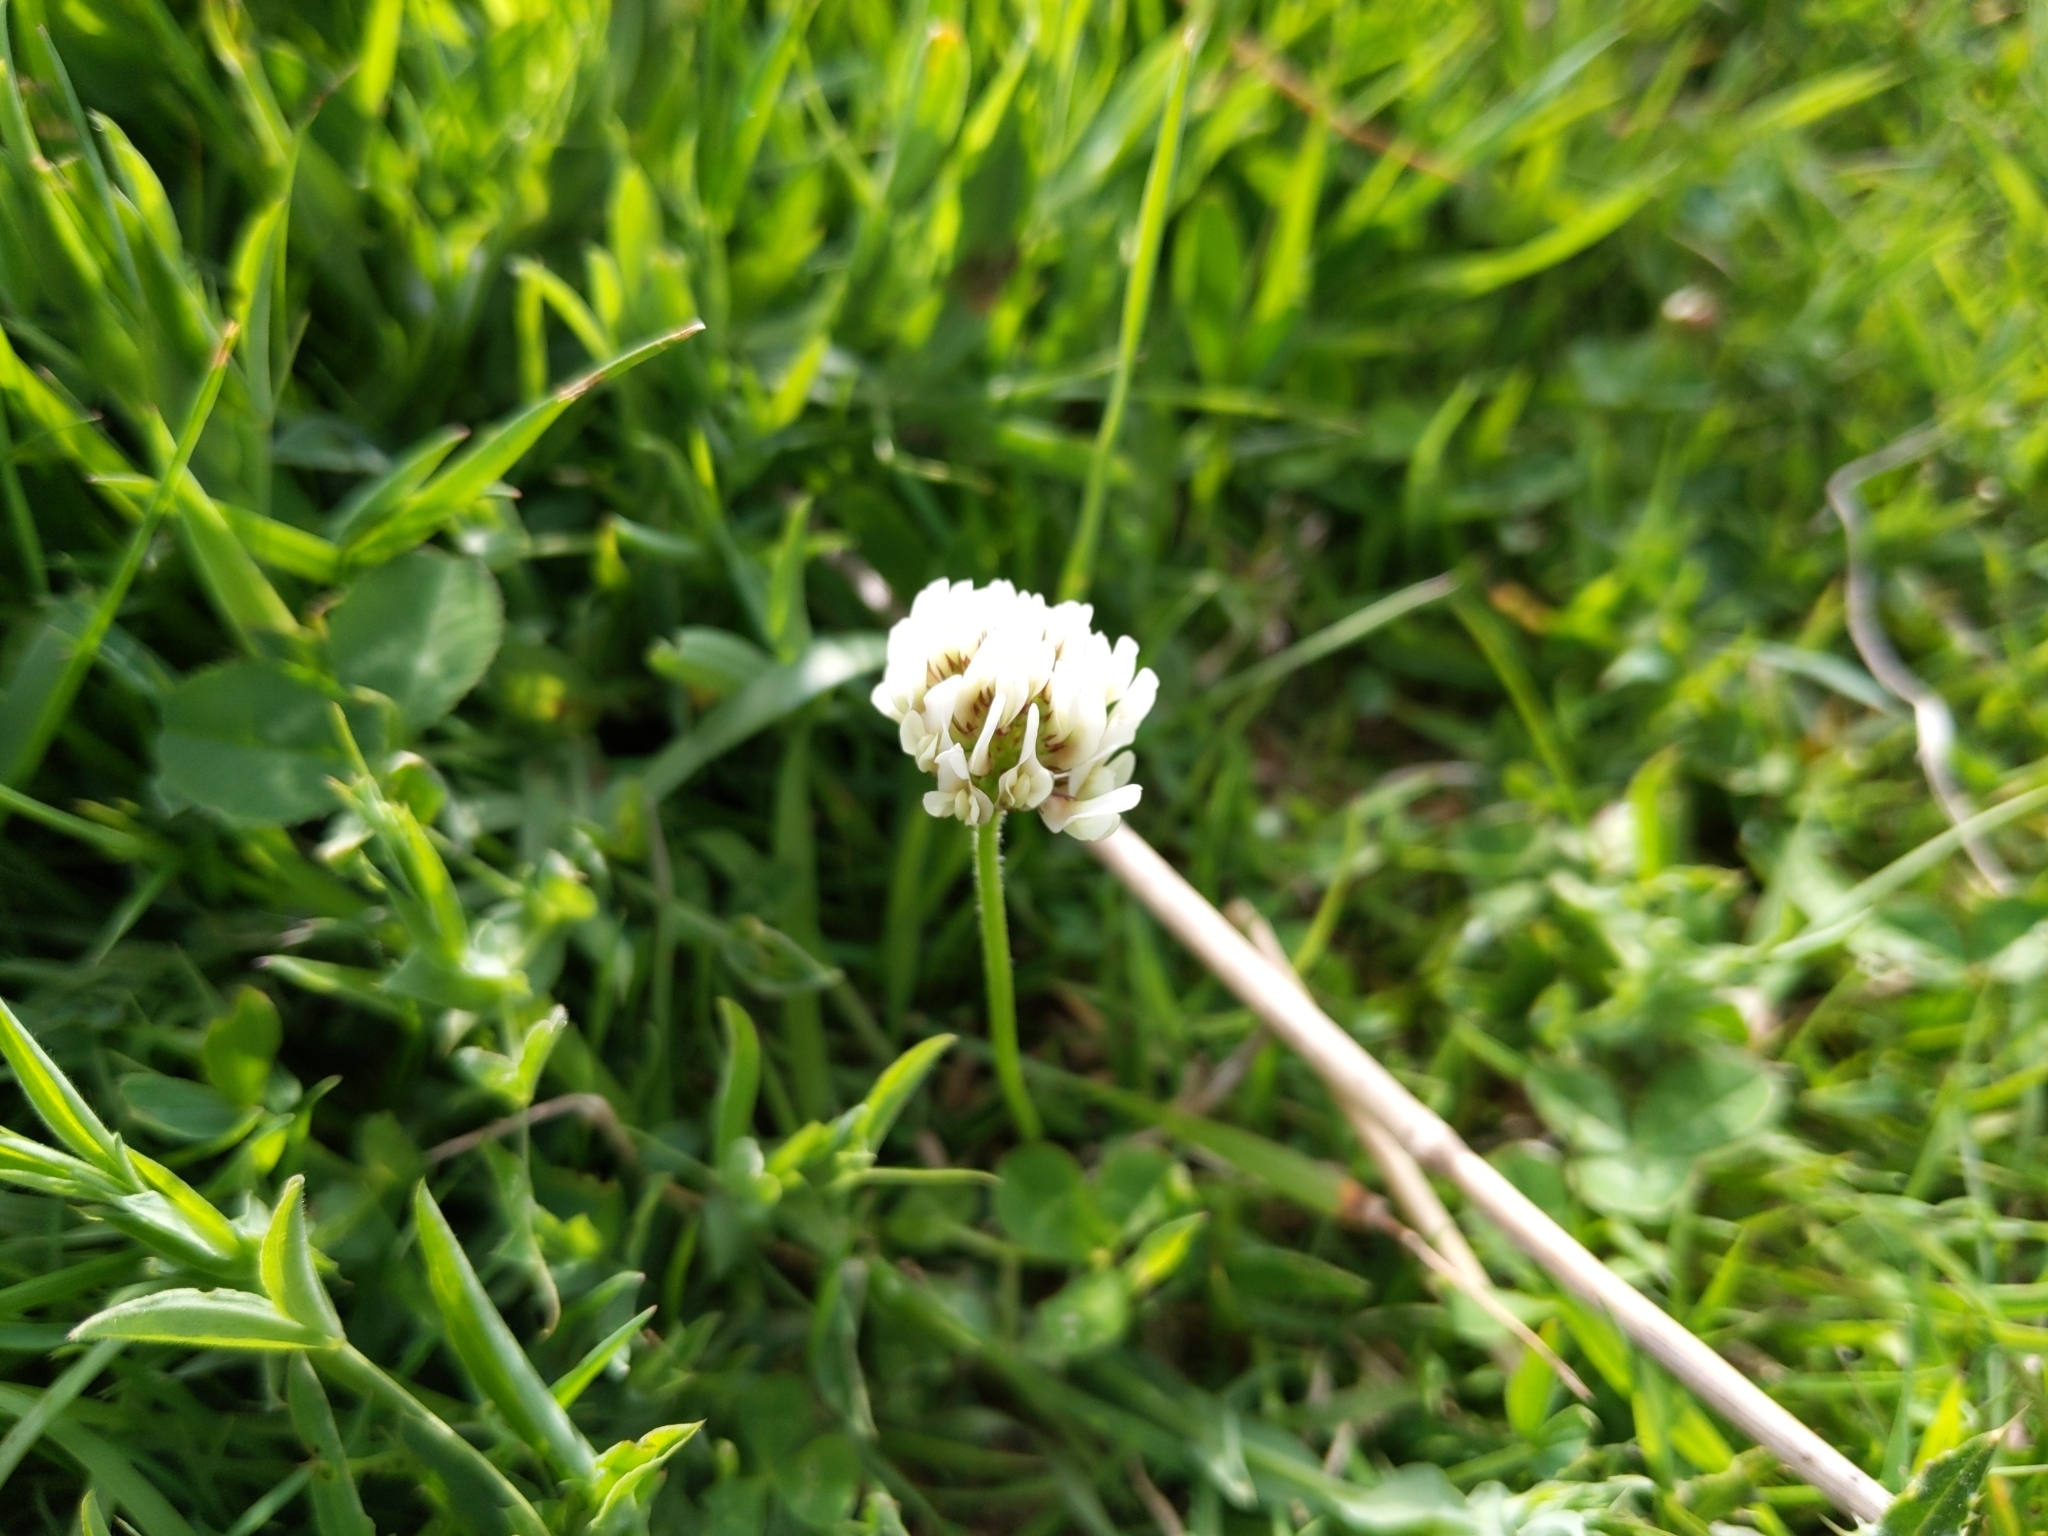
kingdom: Plantae
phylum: Tracheophyta
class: Magnoliopsida
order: Fabales
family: Fabaceae
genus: Trifolium
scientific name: Trifolium repens
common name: White clover
